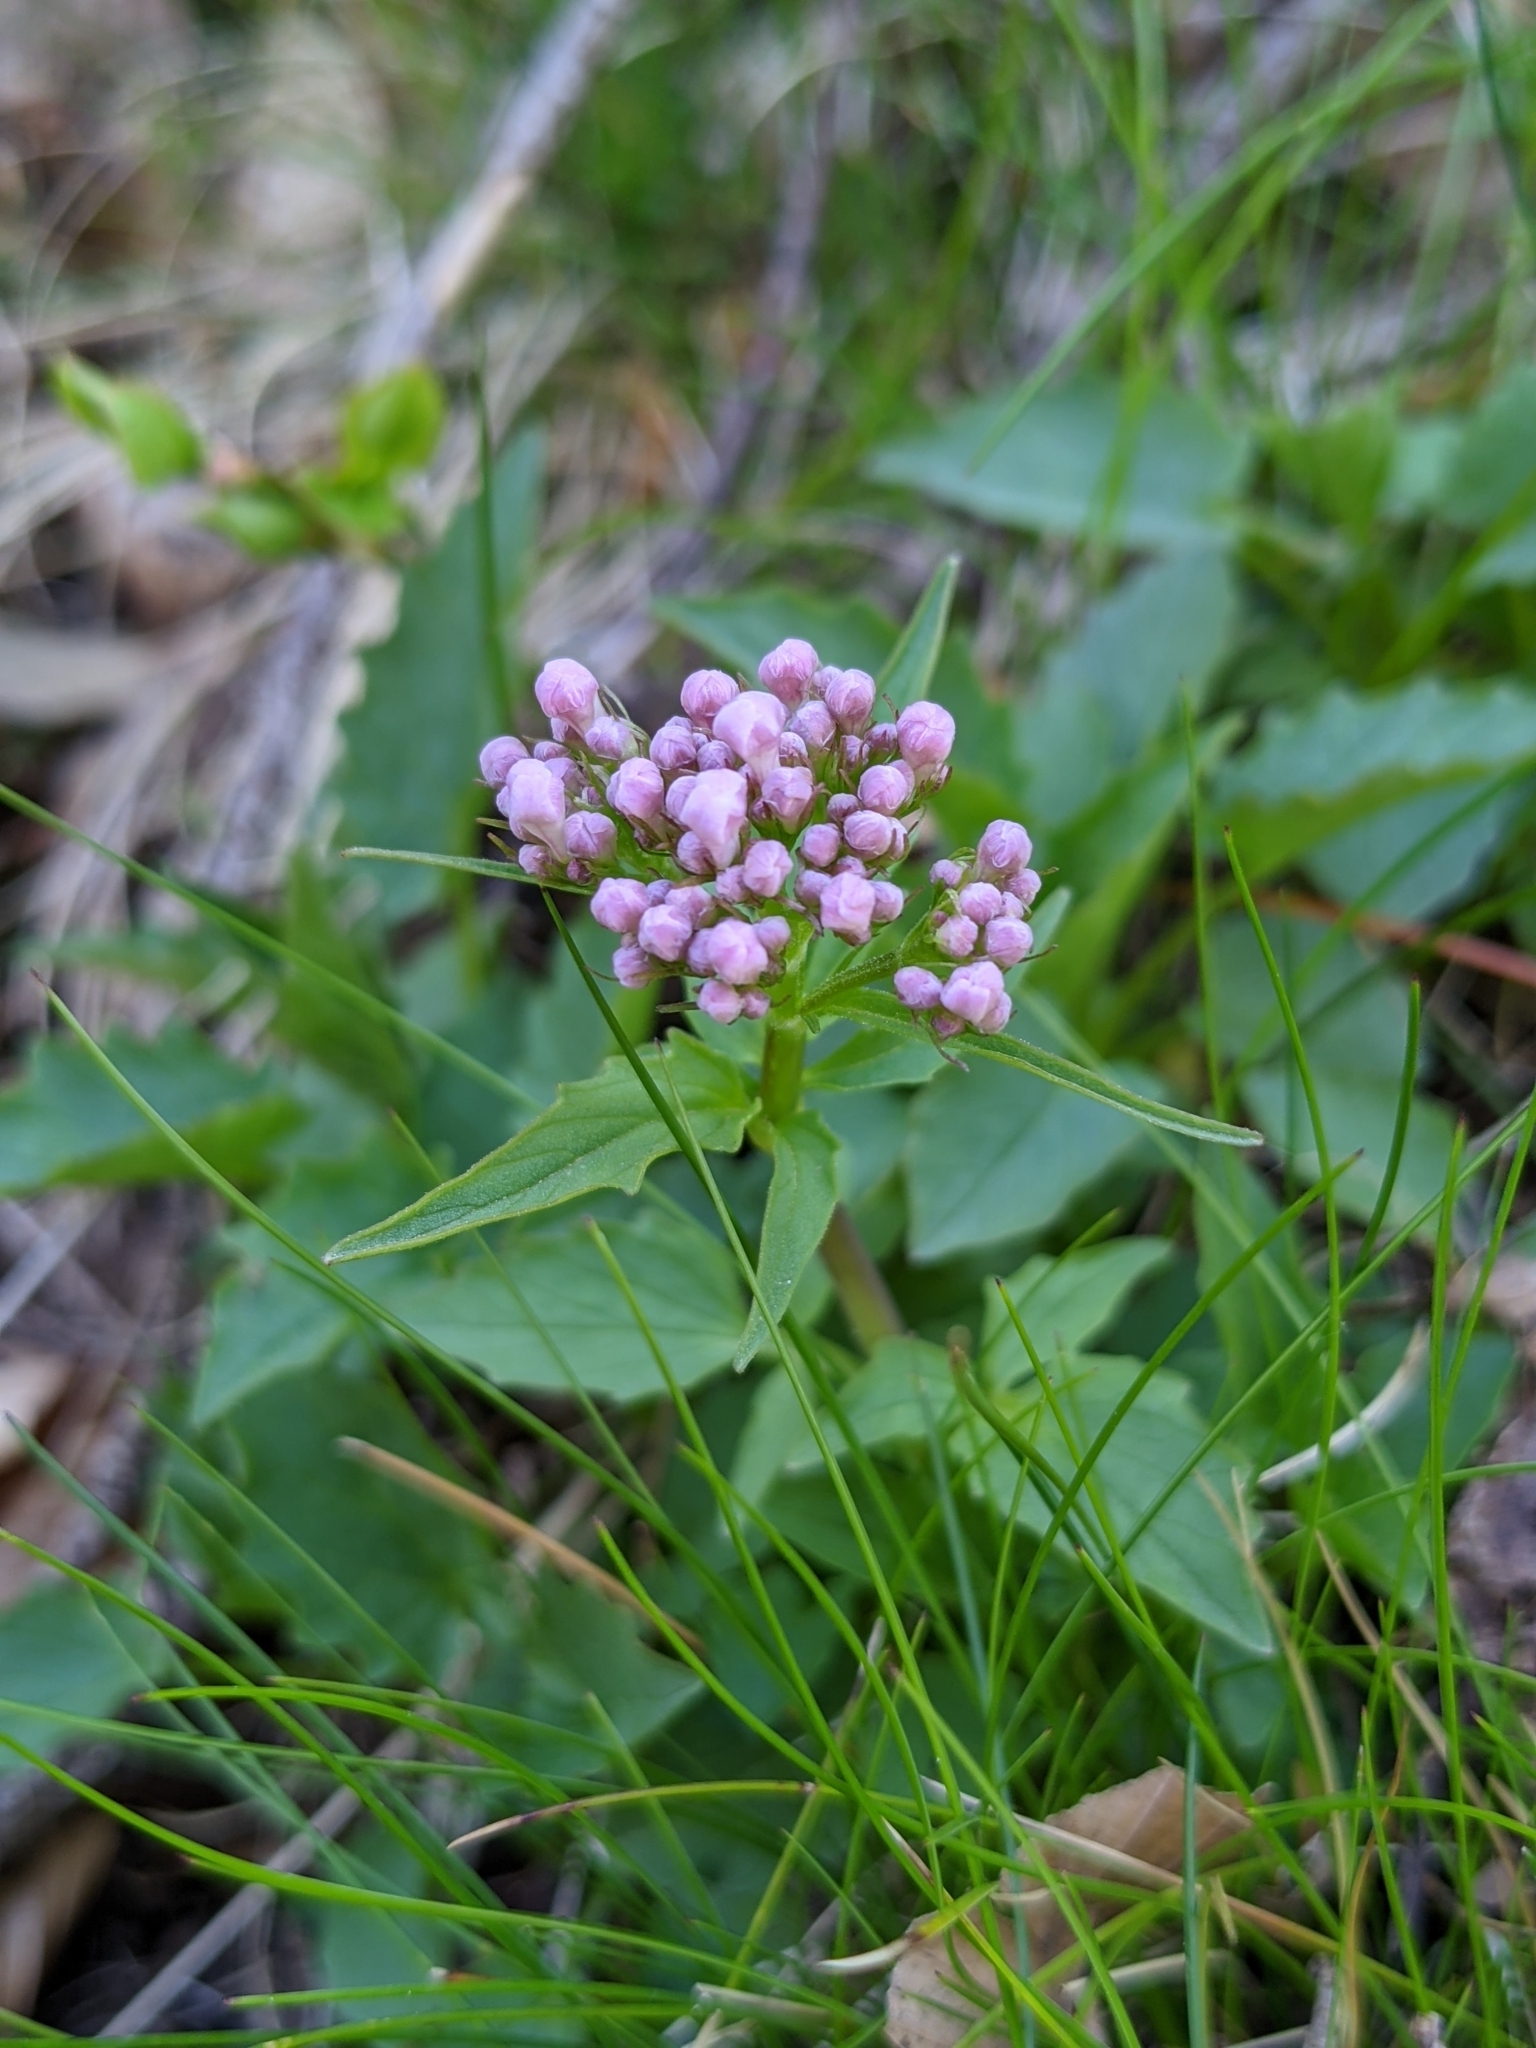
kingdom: Plantae
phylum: Tracheophyta
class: Magnoliopsida
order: Dipsacales
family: Caprifoliaceae
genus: Valeriana
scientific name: Valeriana tripteris
